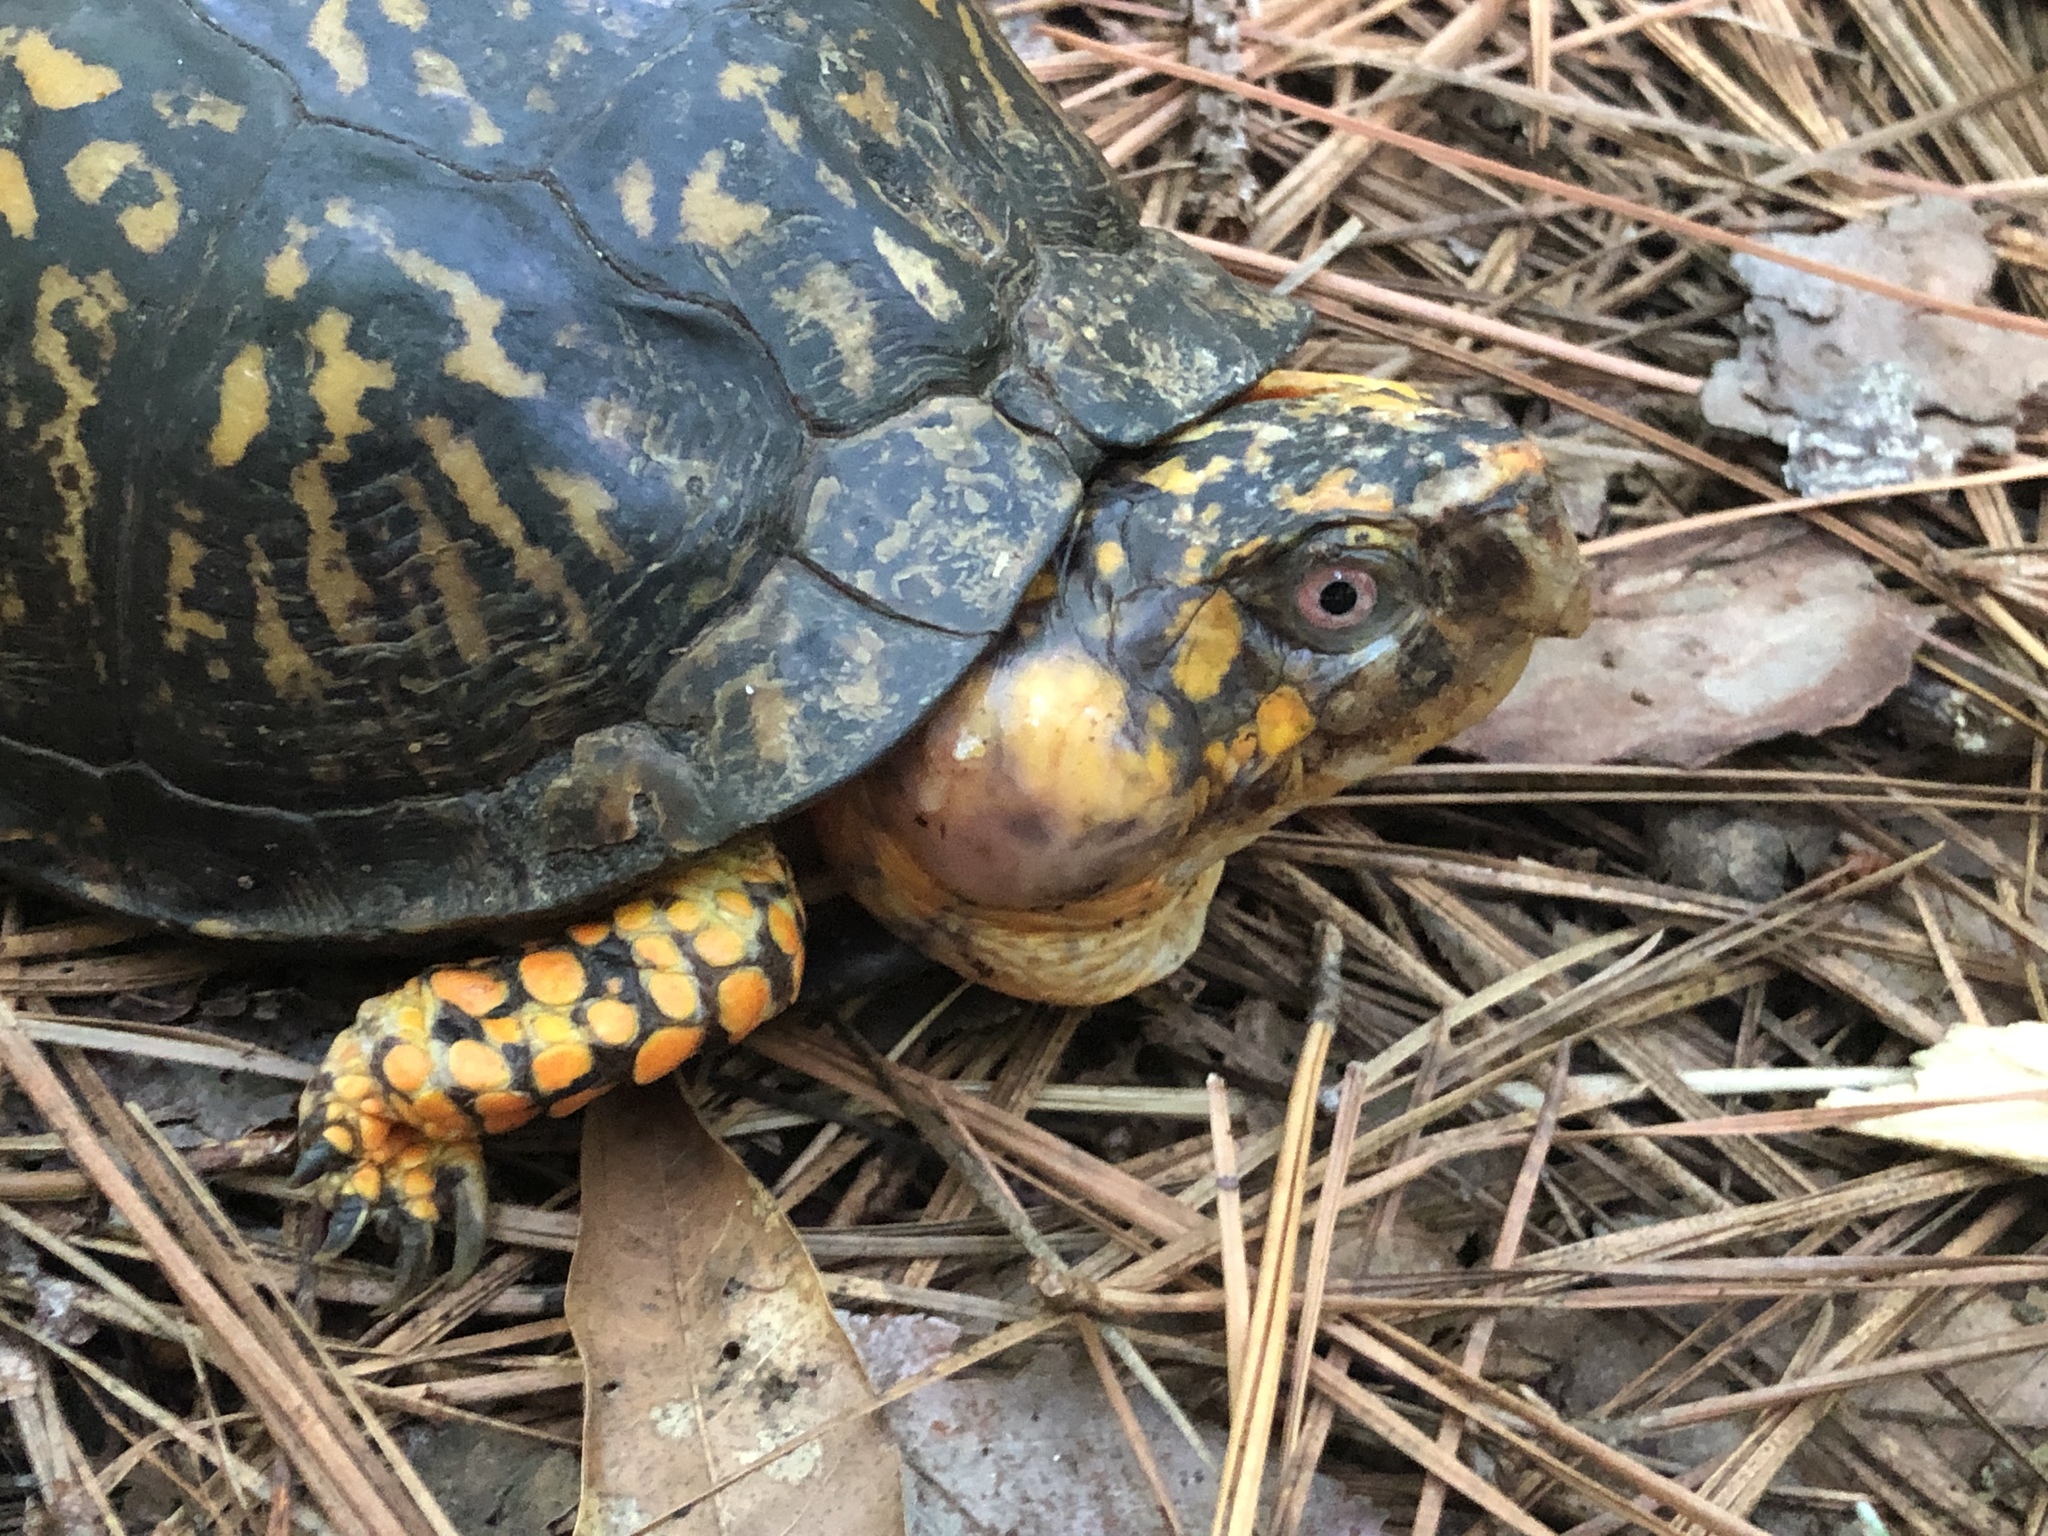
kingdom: Animalia
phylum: Chordata
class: Testudines
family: Emydidae
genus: Terrapene
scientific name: Terrapene carolina
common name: Common box turtle
